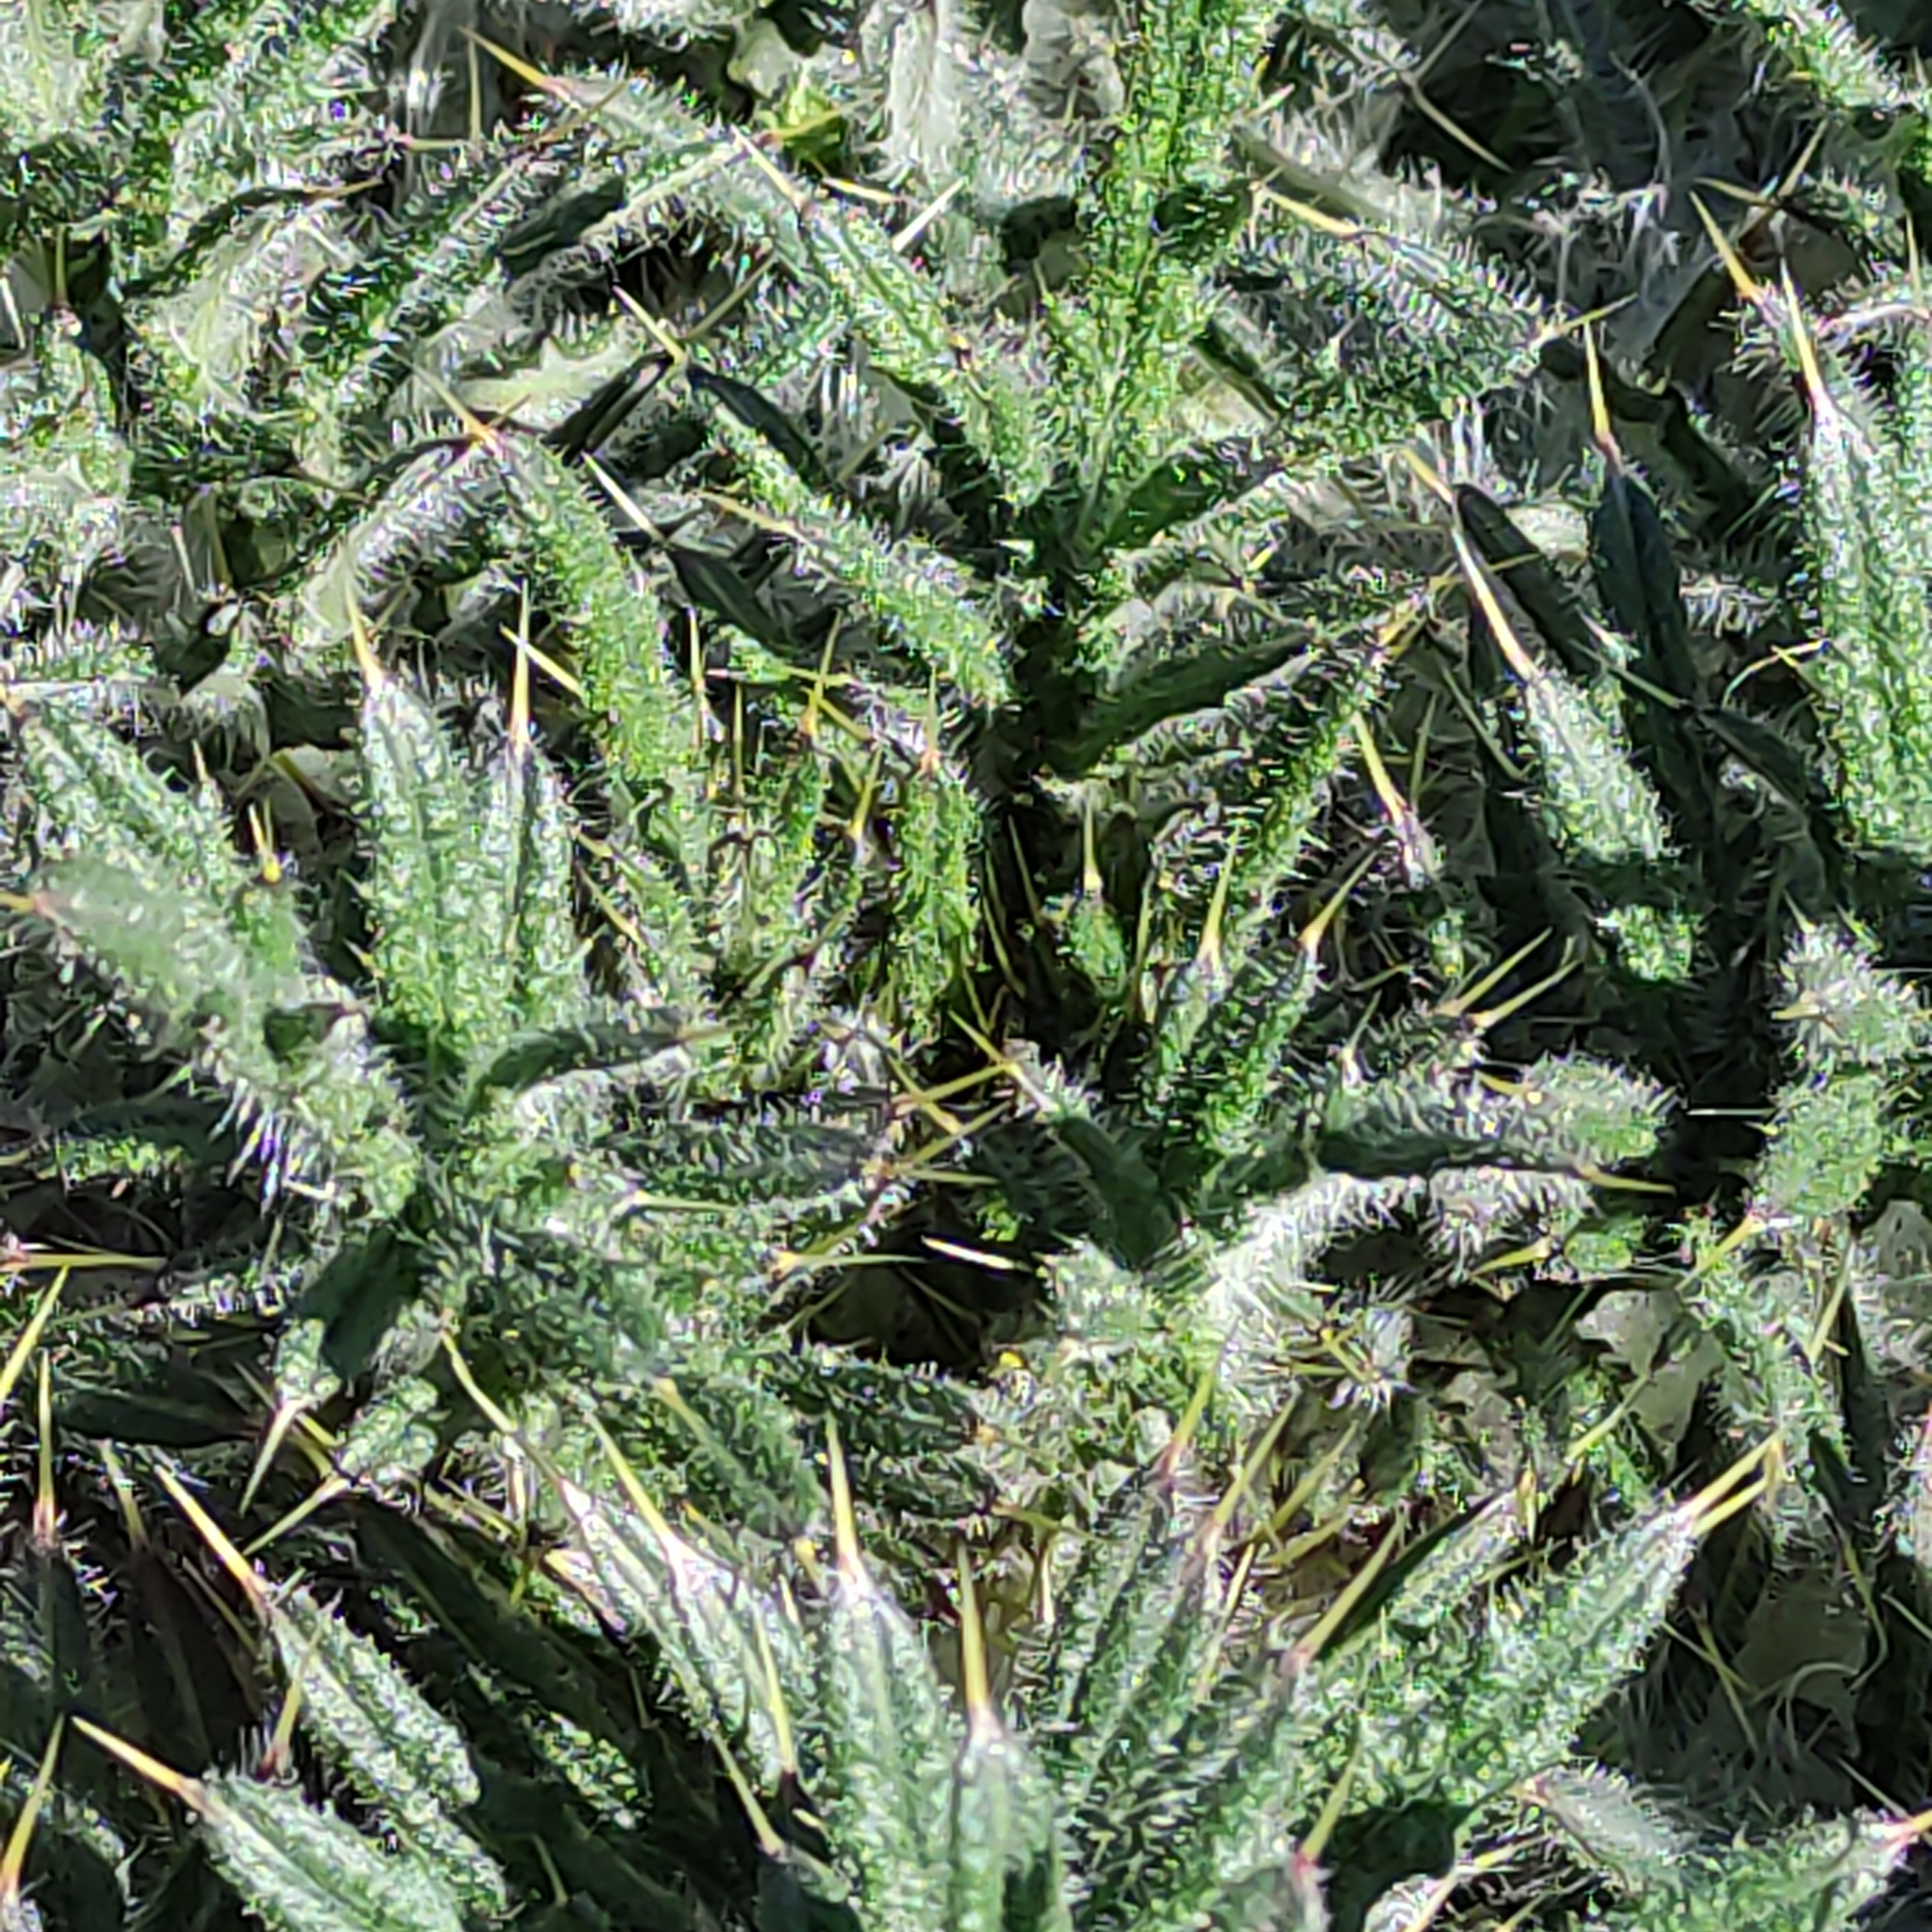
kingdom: Plantae
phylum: Tracheophyta
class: Magnoliopsida
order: Asterales
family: Asteraceae
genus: Cirsium
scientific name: Cirsium vulgare
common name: Bull thistle
